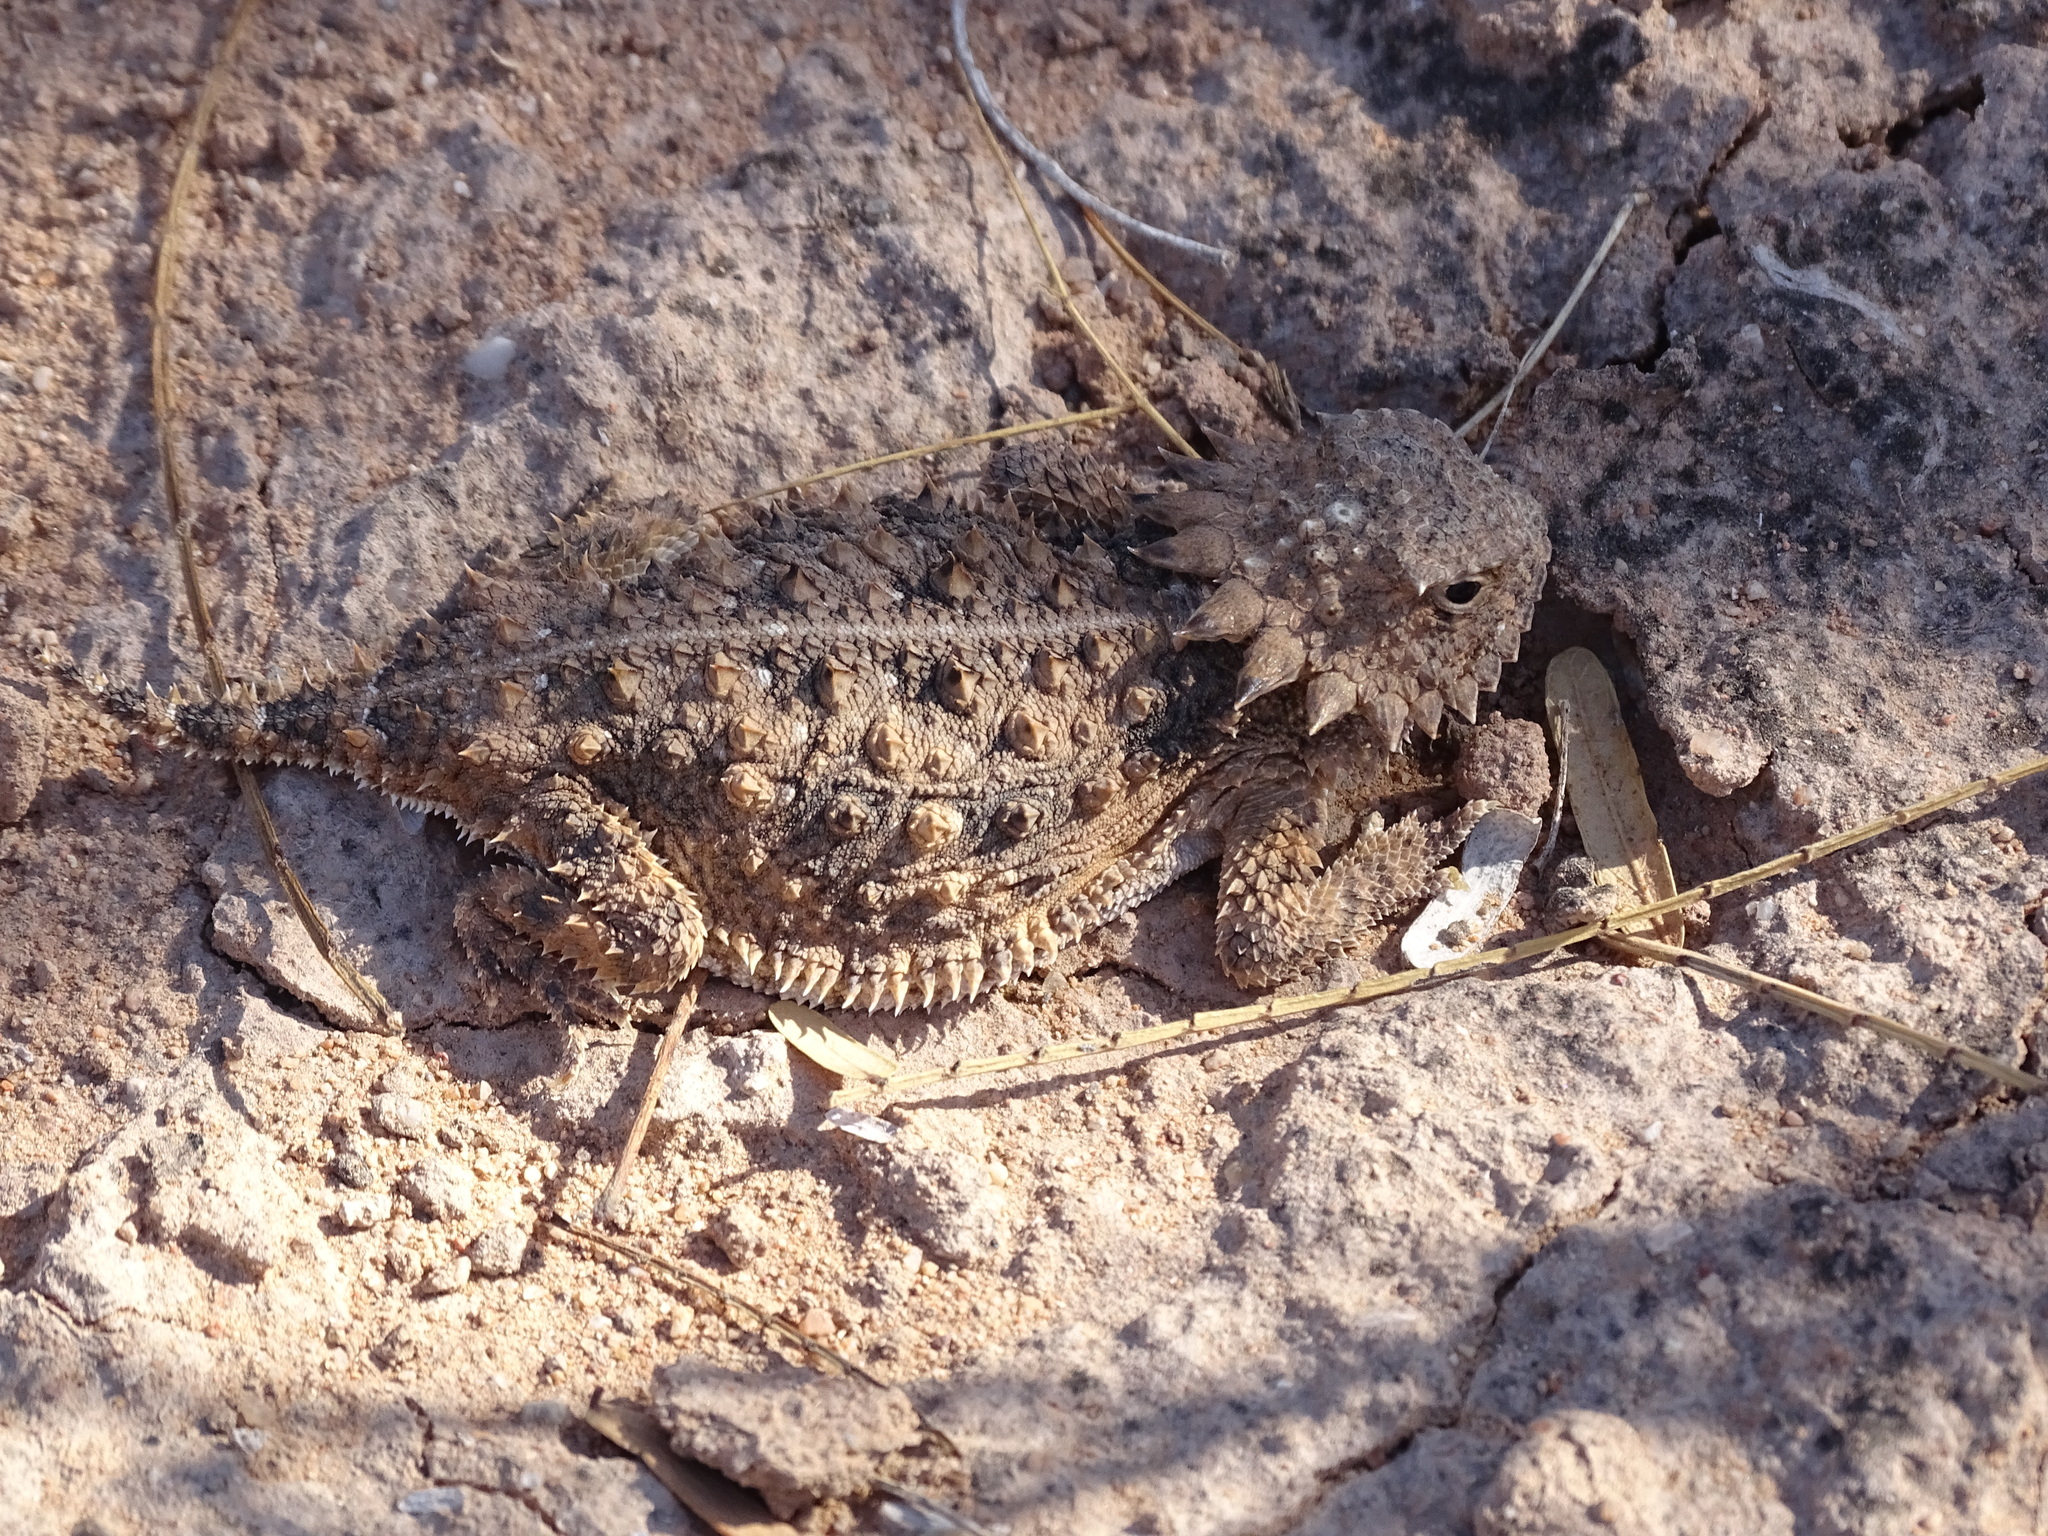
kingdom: Animalia
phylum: Chordata
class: Squamata
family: Phrynosomatidae
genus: Phrynosoma
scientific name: Phrynosoma solare
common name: Regal horned lizard
